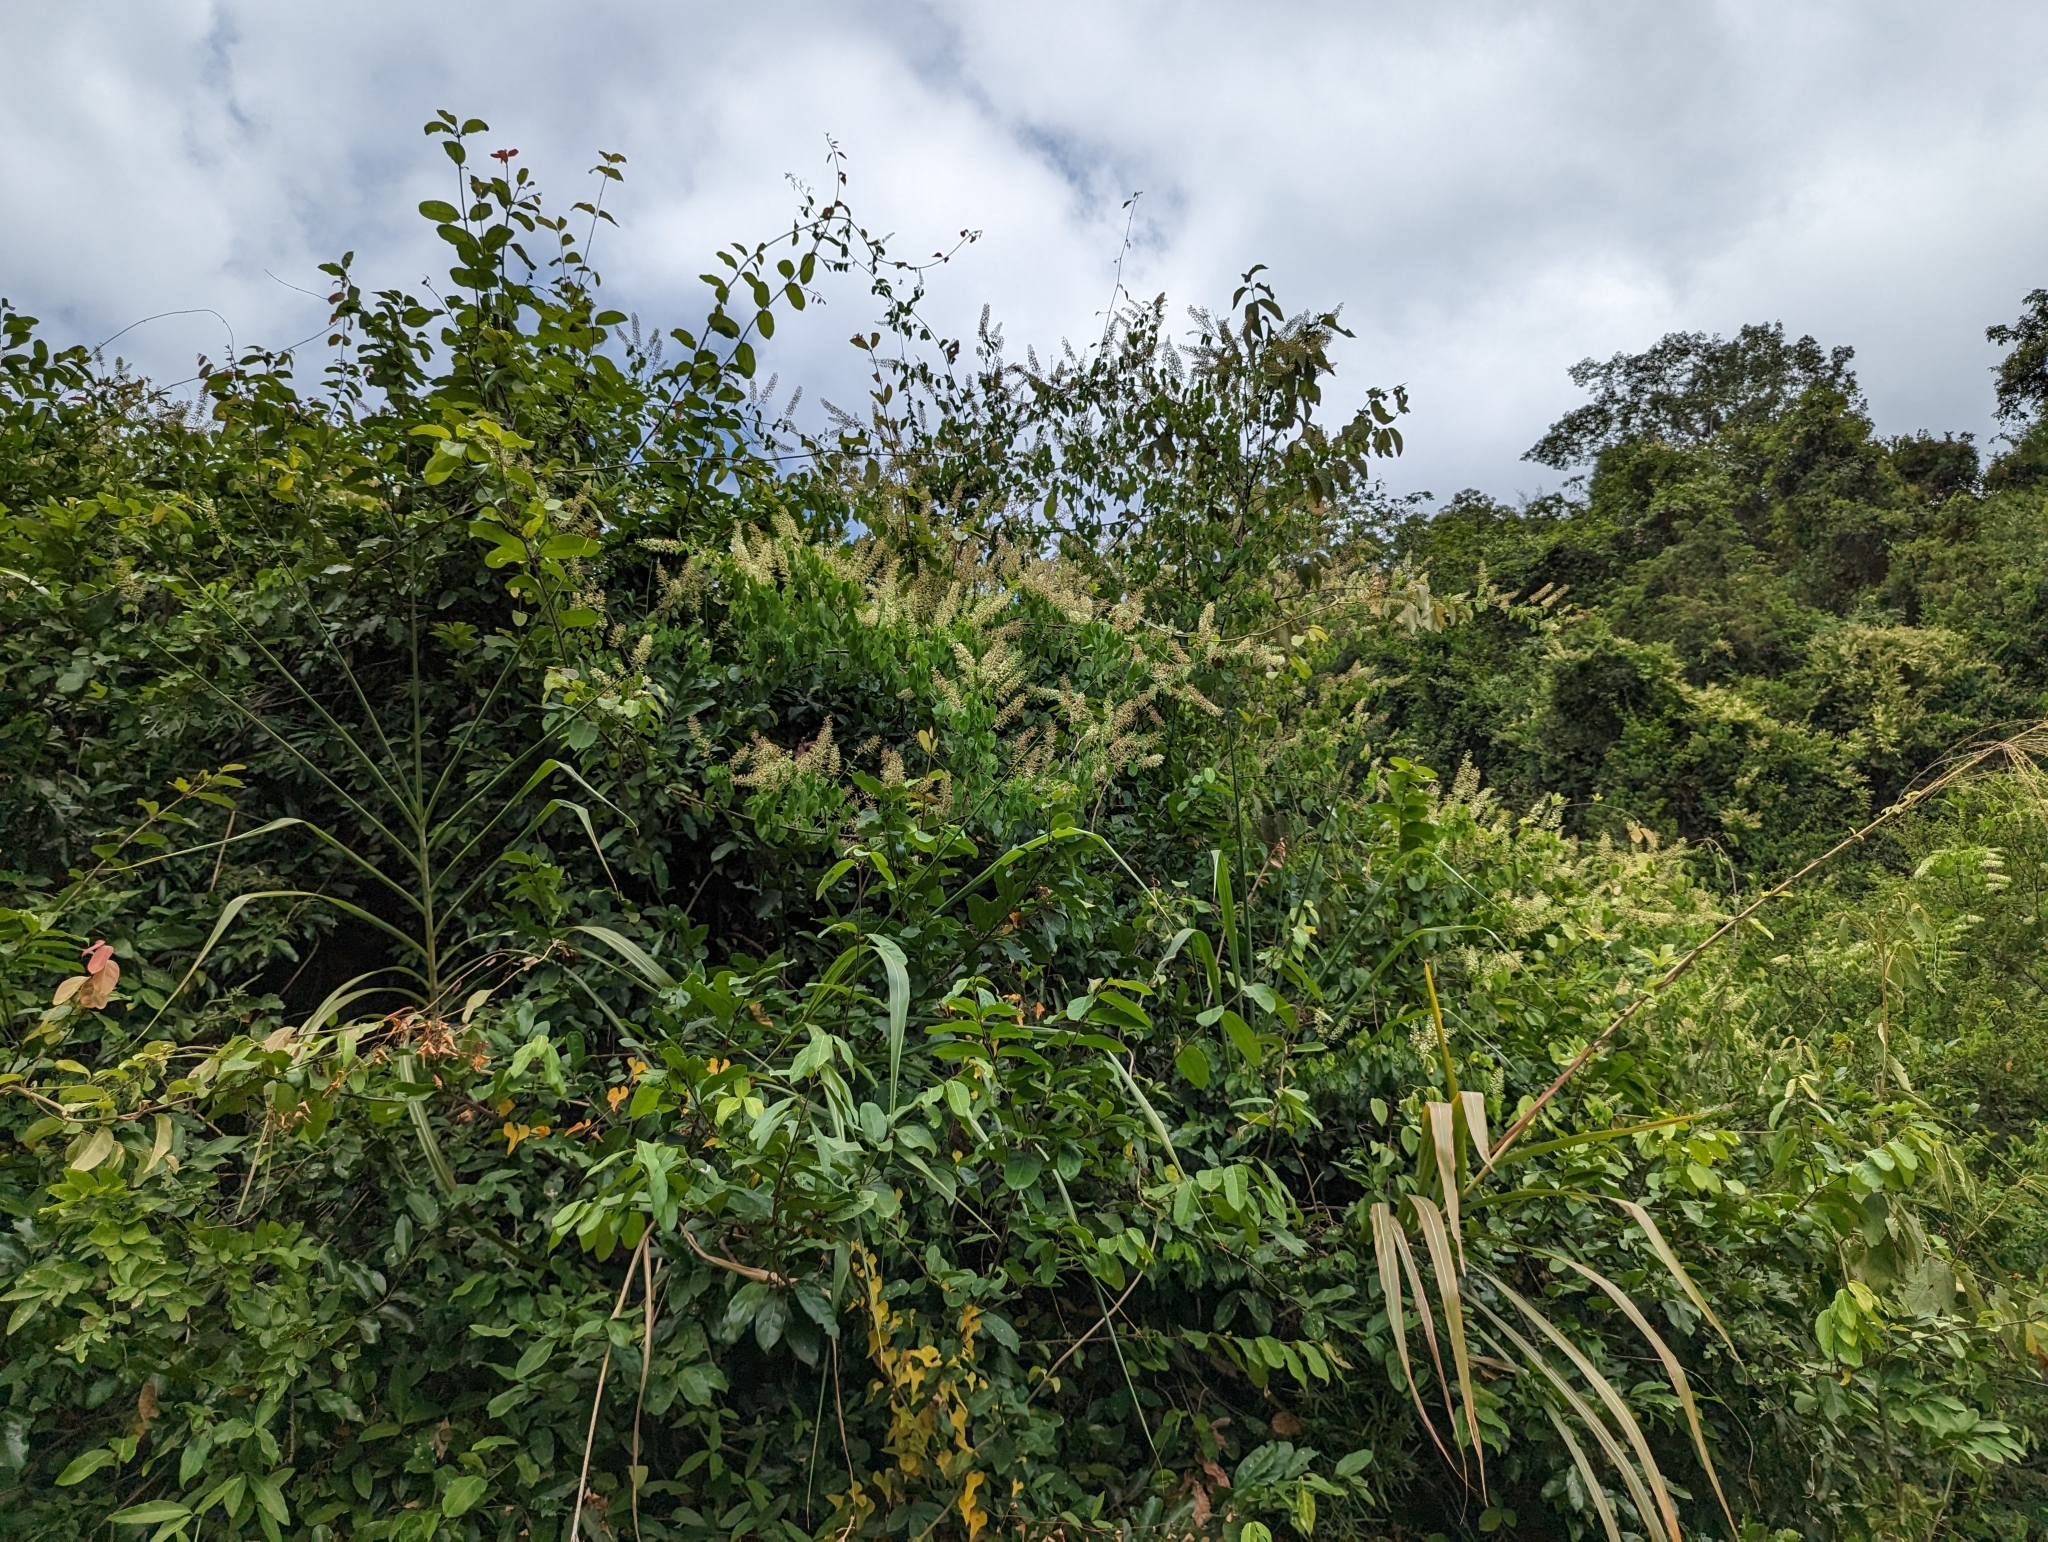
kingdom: Plantae
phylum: Tracheophyta
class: Magnoliopsida
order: Fabales
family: Fabaceae
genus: Phanera
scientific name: Phanera championii
